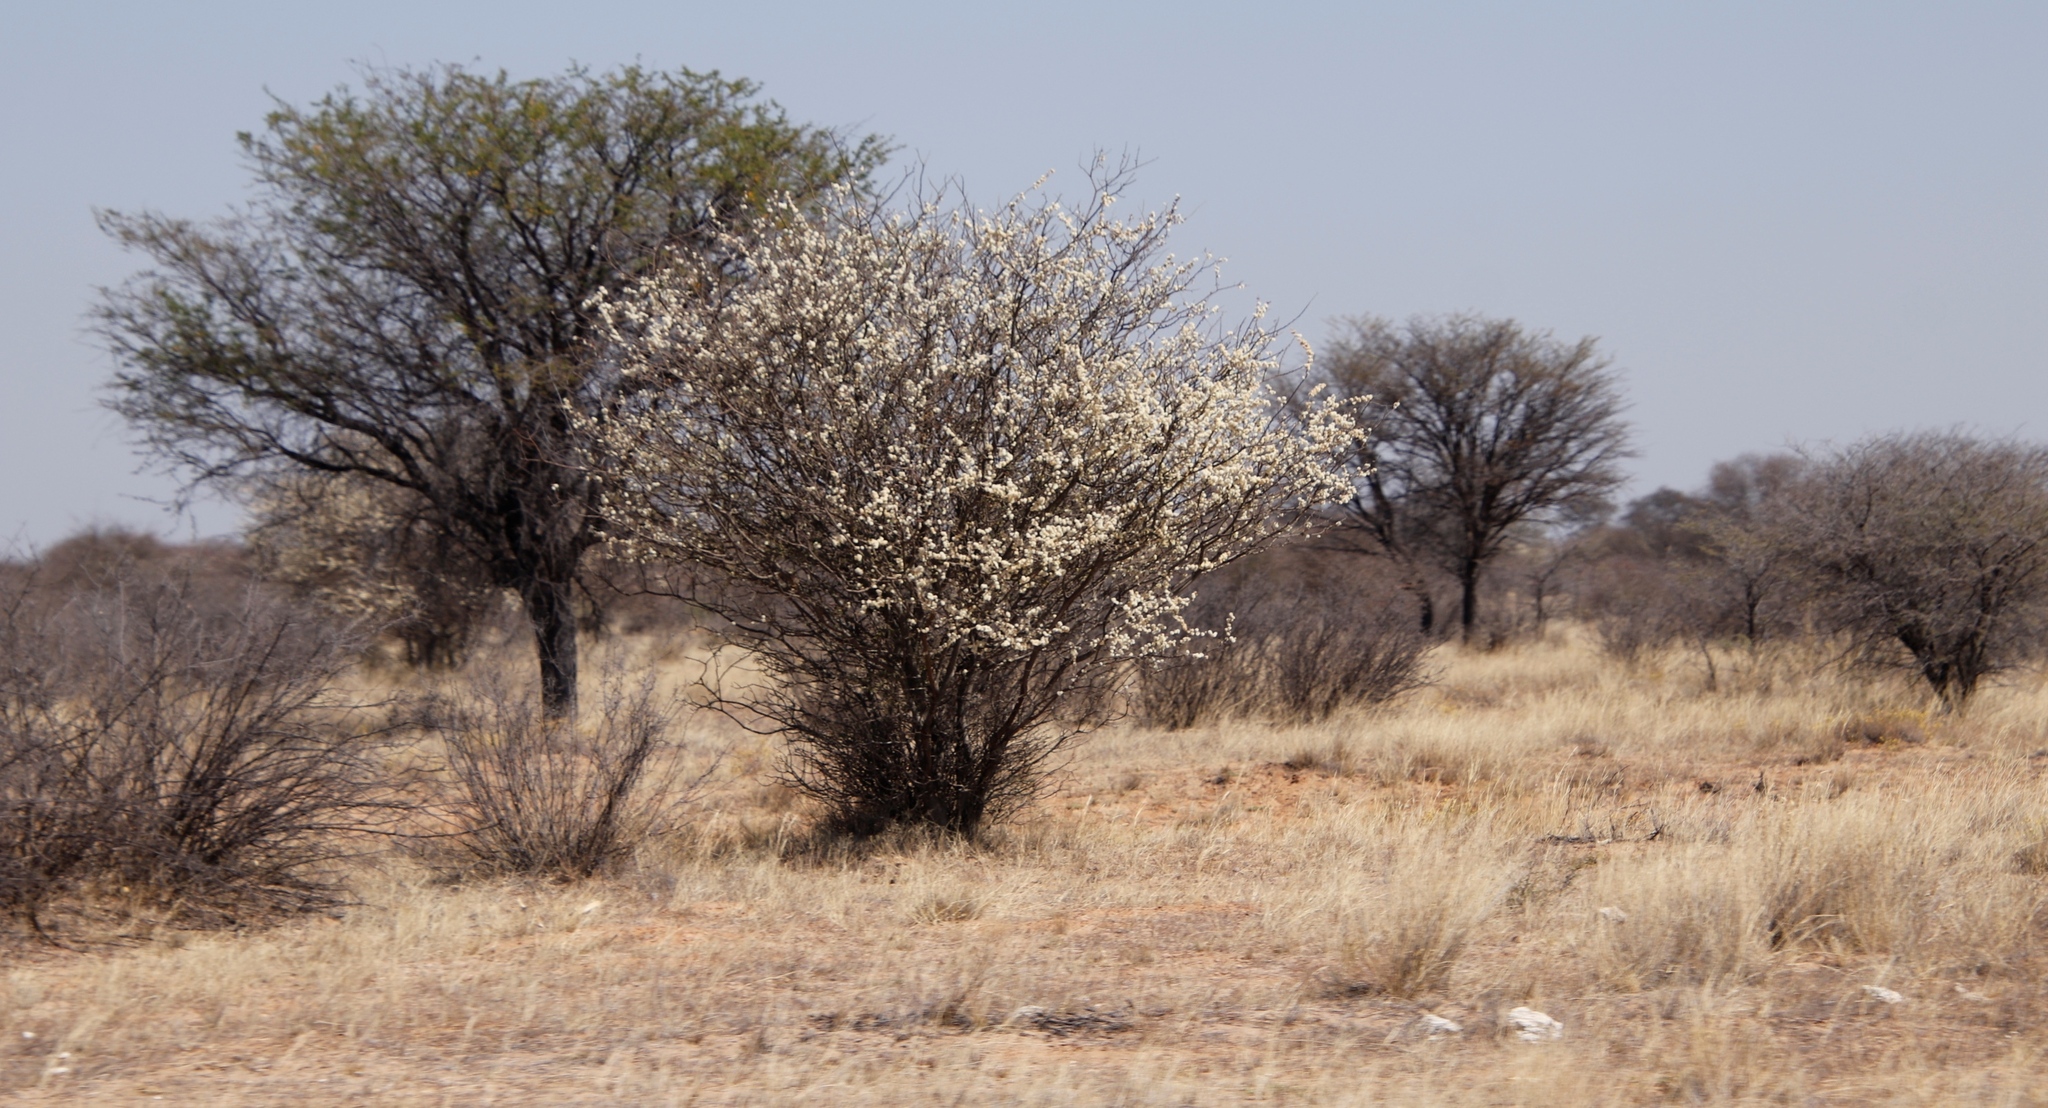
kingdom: Plantae
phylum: Tracheophyta
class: Magnoliopsida
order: Fabales
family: Fabaceae
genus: Senegalia
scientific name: Senegalia mellifera
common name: Hookthorn
